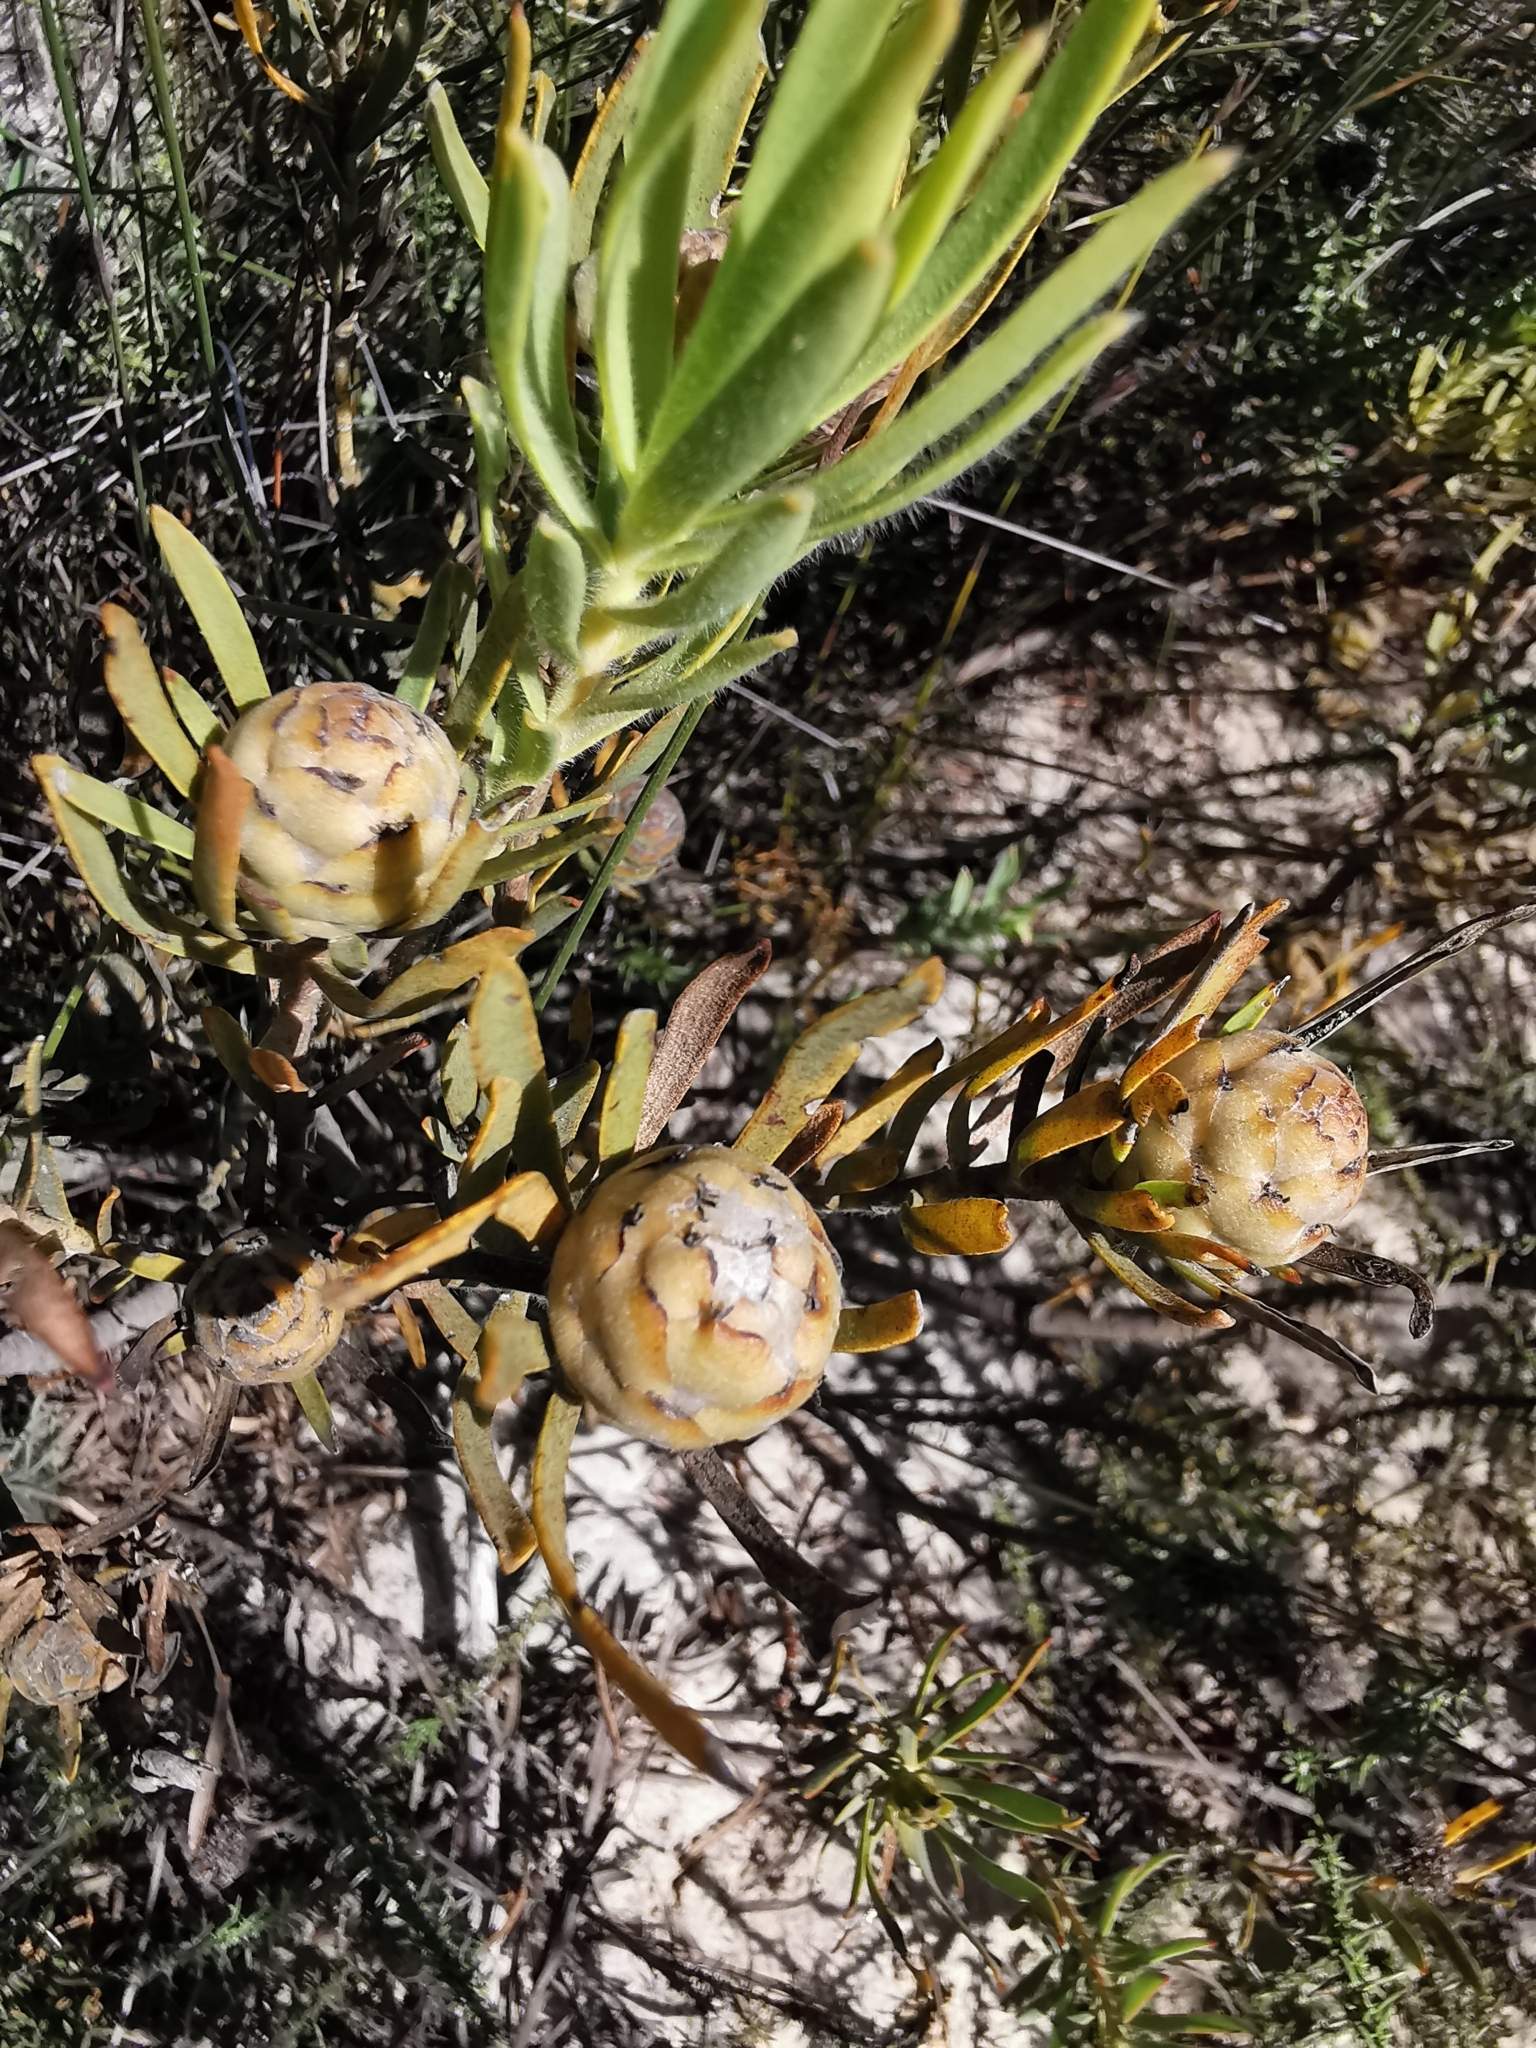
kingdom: Plantae
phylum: Tracheophyta
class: Magnoliopsida
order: Proteales
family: Proteaceae
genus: Leucadendron
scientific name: Leucadendron lanigerum
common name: Shale conebush
